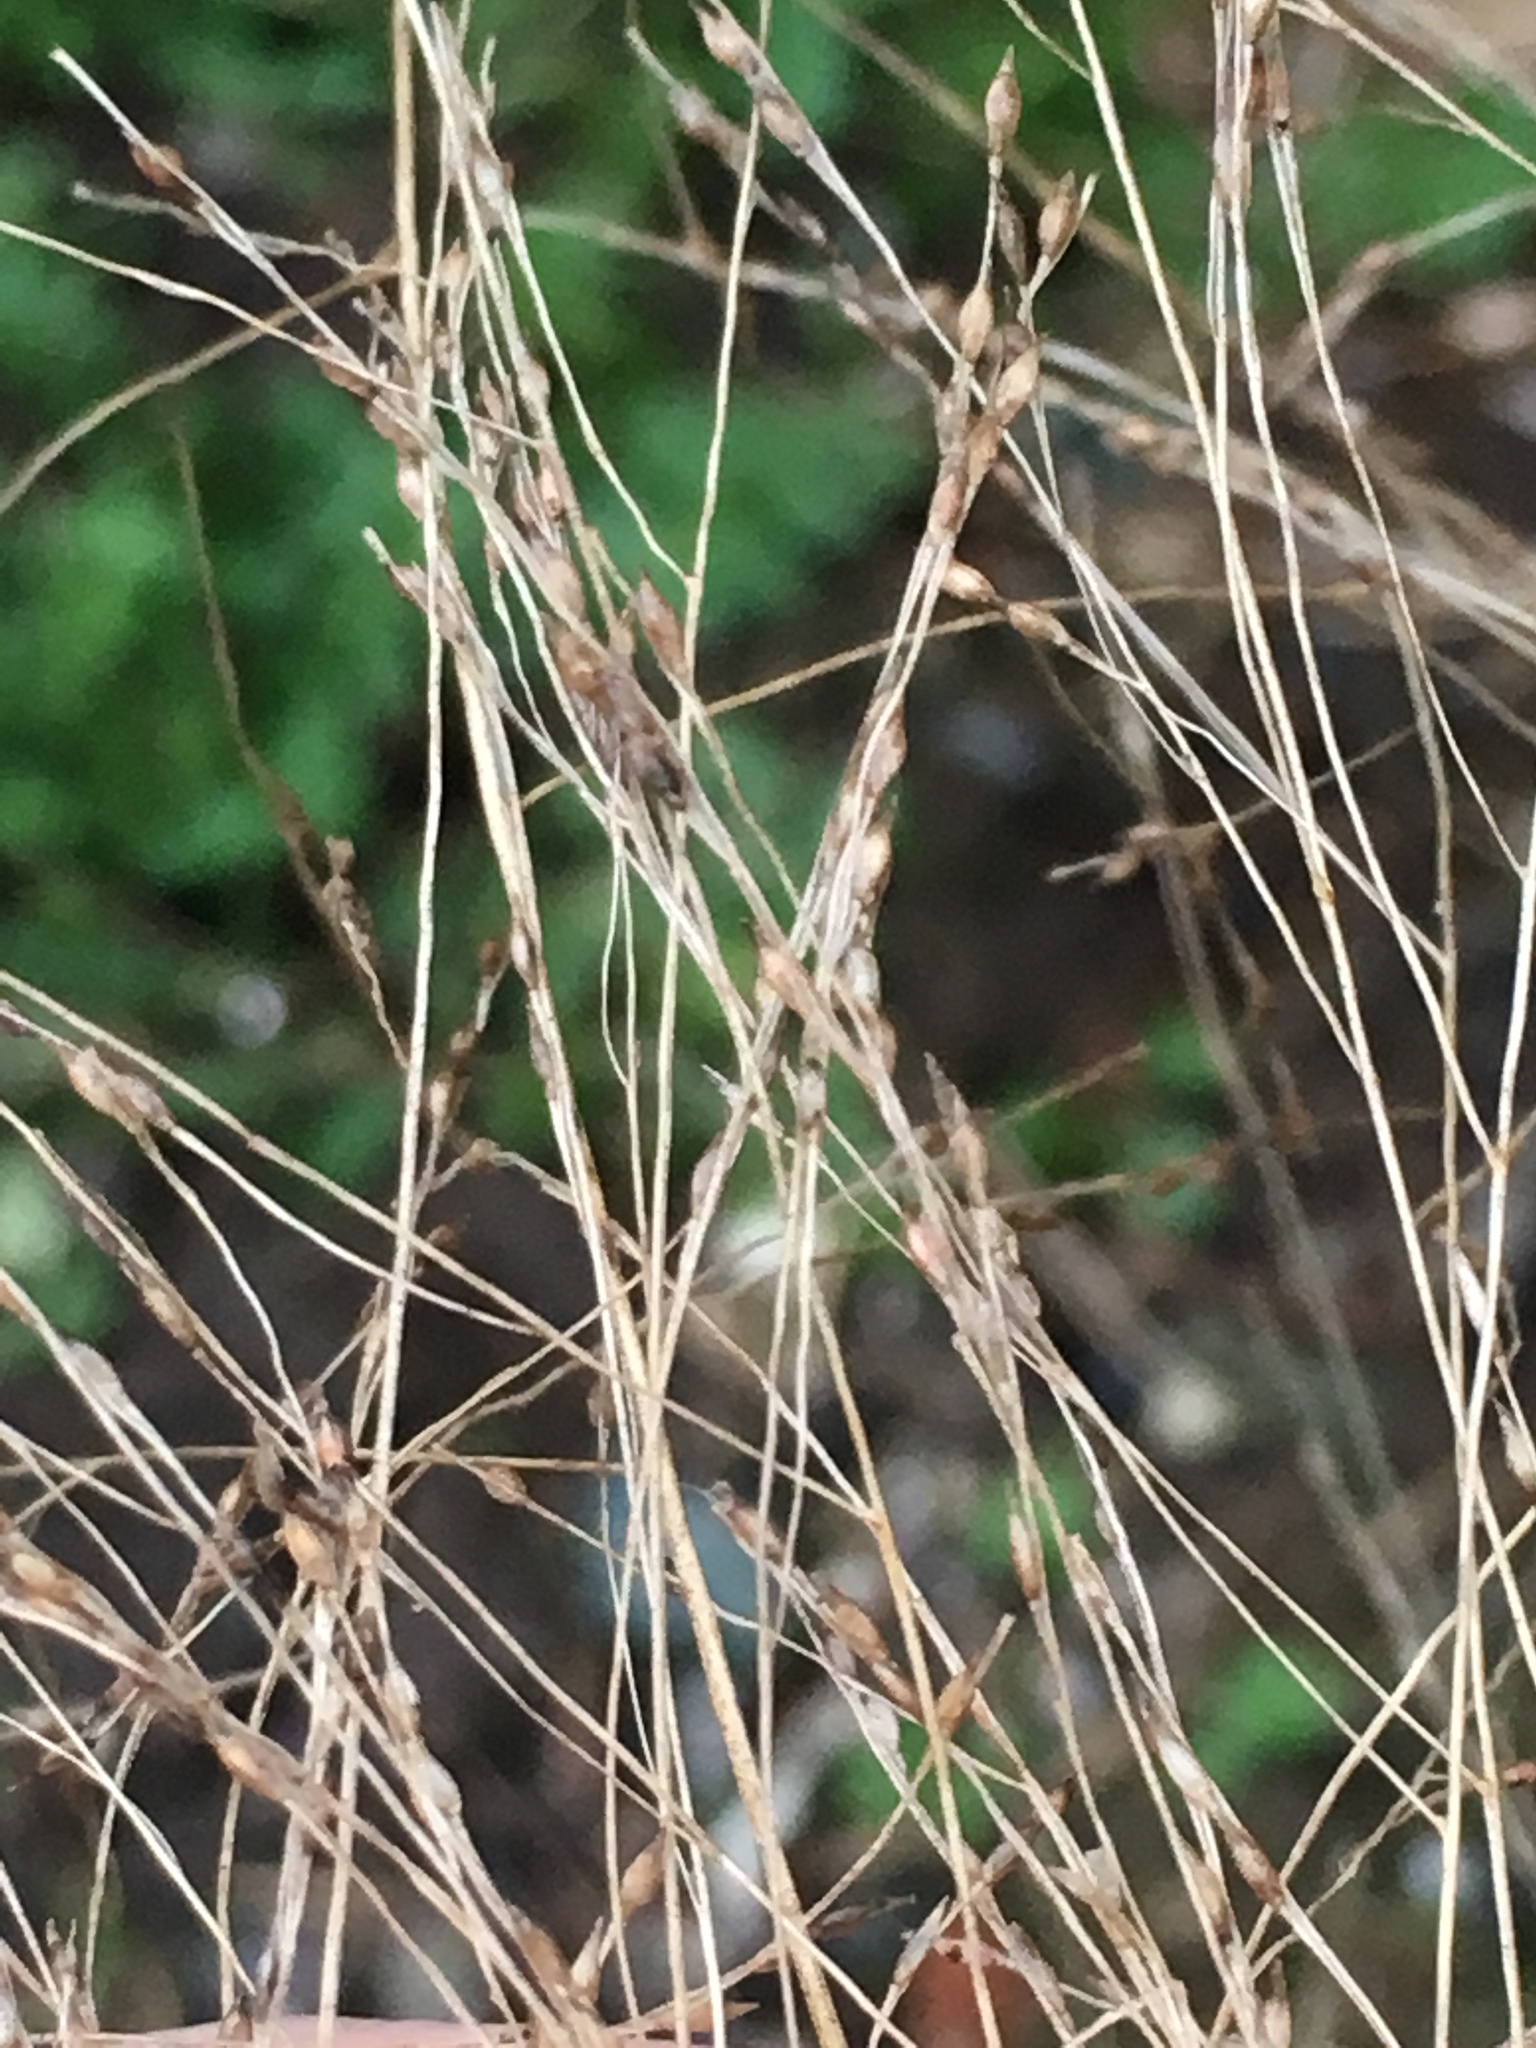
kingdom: Plantae
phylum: Tracheophyta
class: Liliopsida
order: Poales
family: Poaceae
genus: Panicum
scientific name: Panicum capillare
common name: Witch-grass
